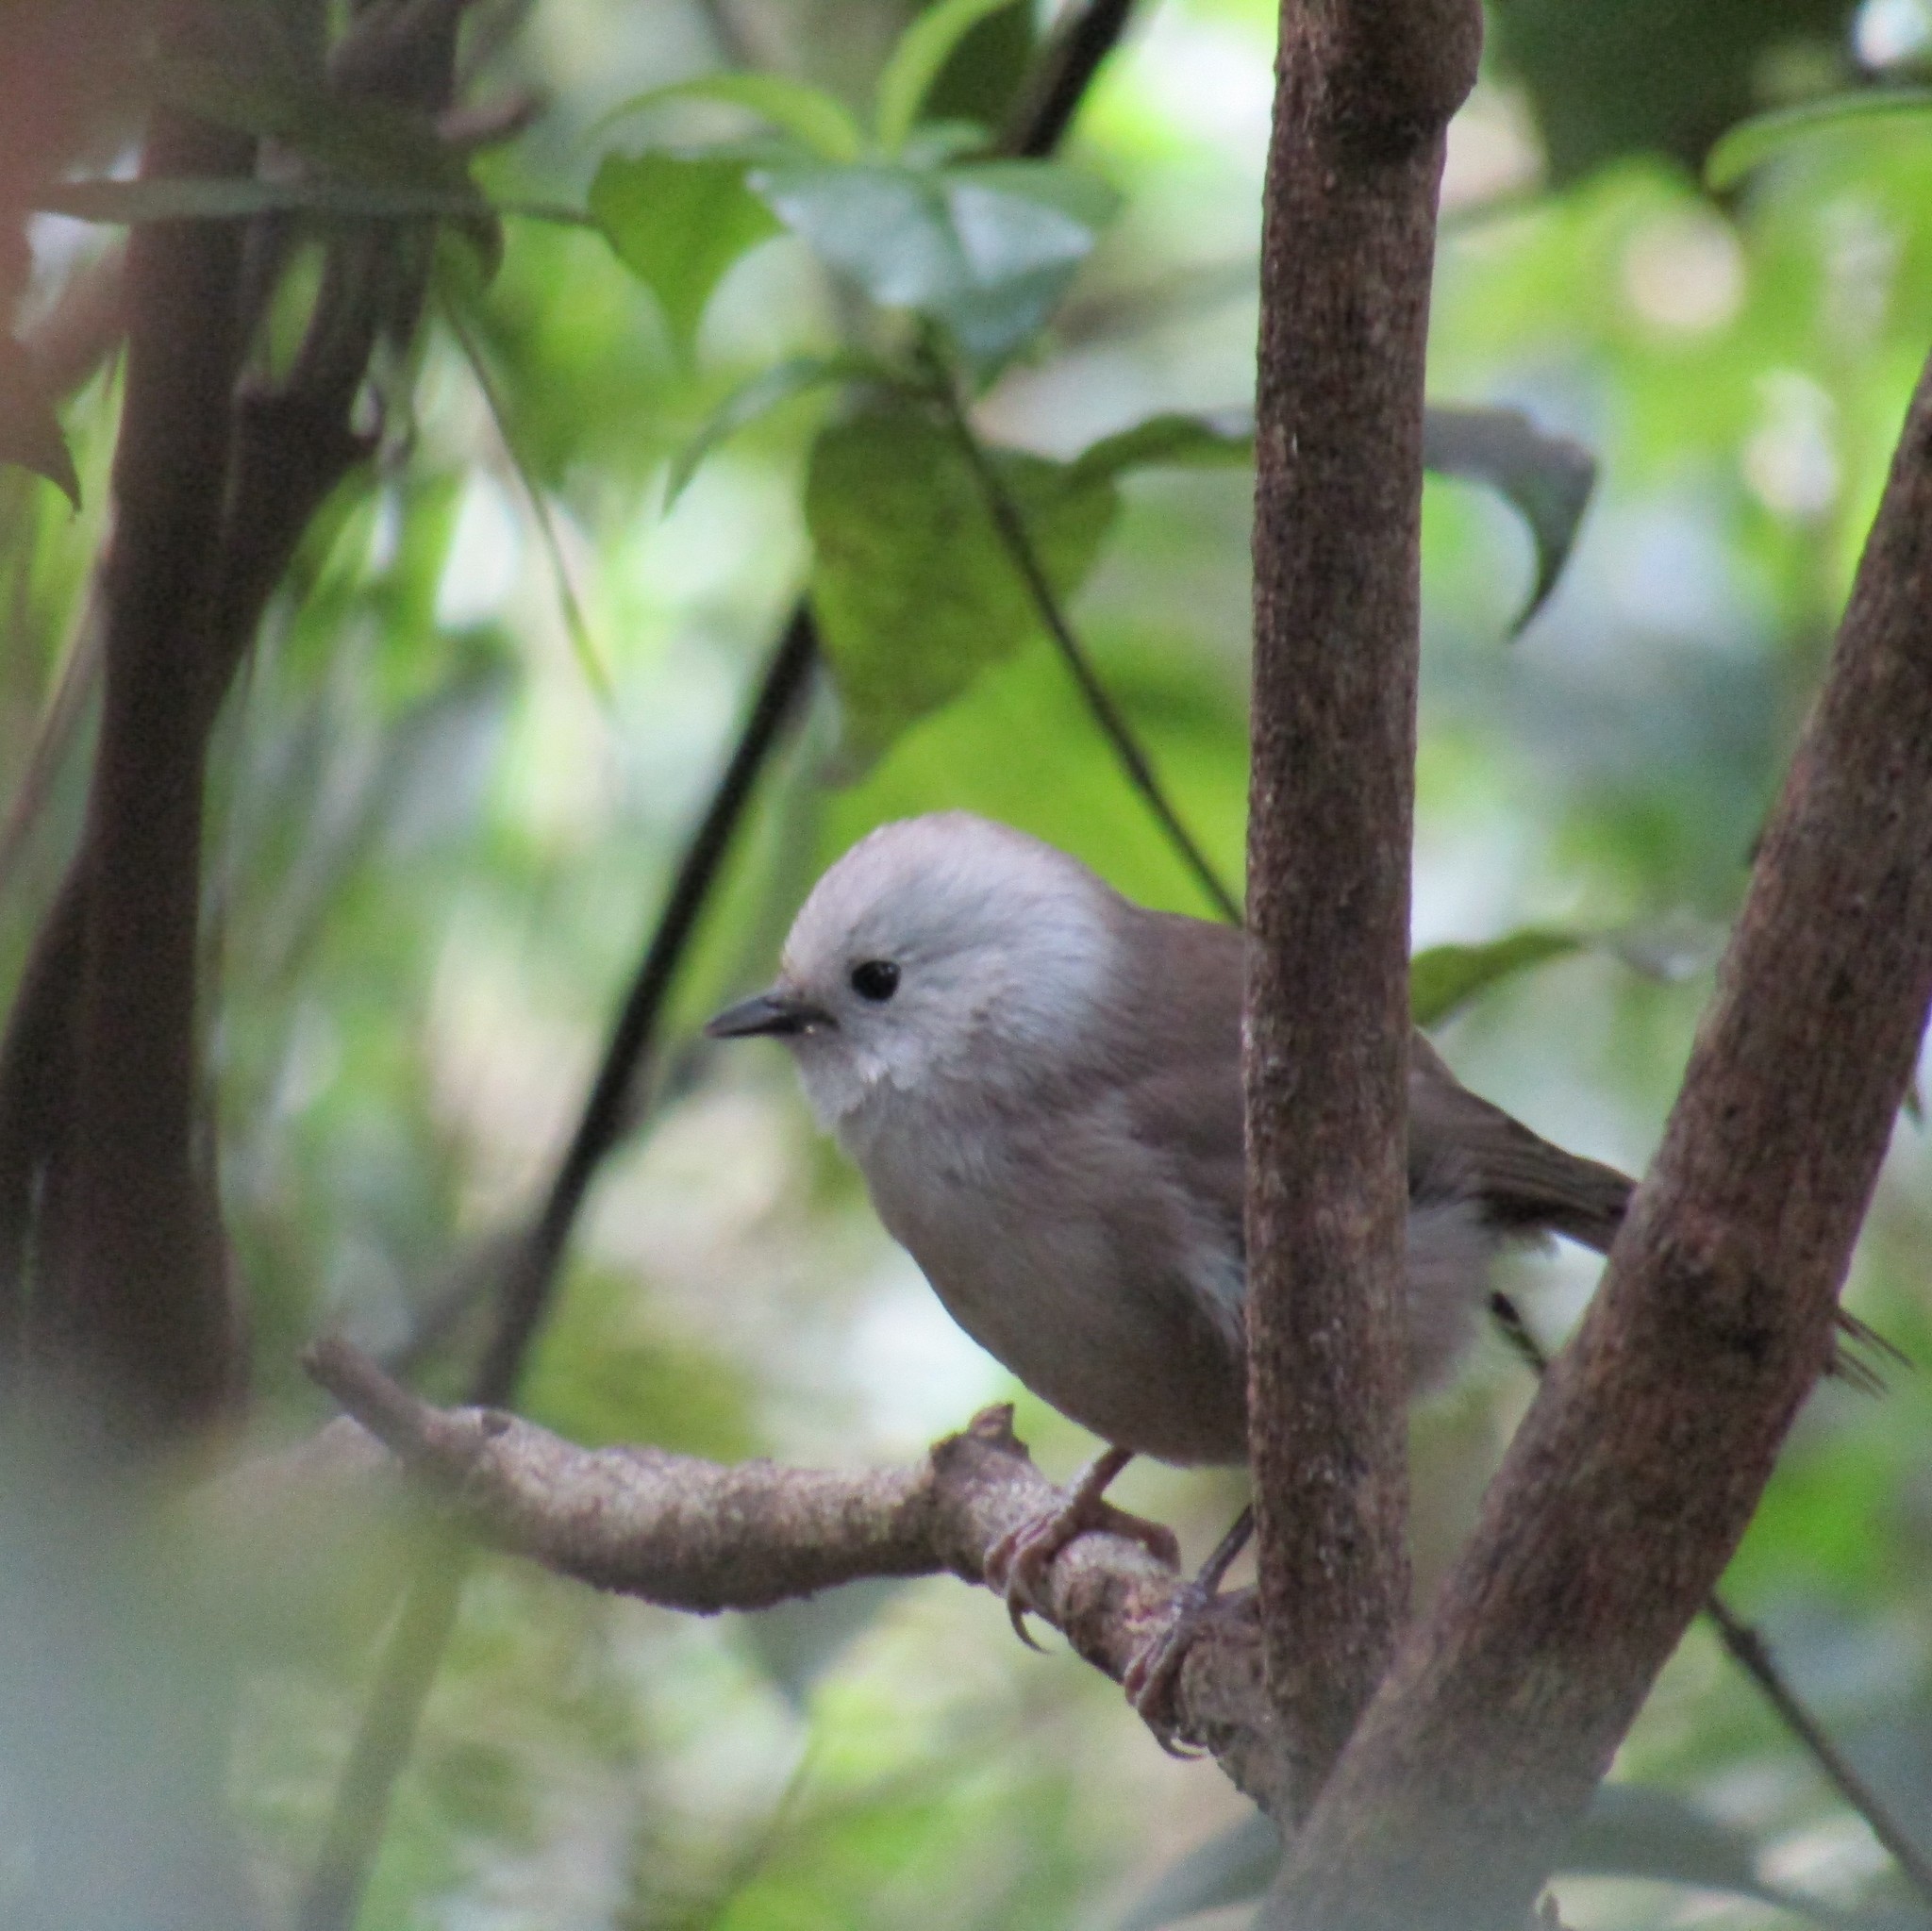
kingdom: Animalia
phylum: Chordata
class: Aves
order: Passeriformes
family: Acanthizidae
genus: Mohoua
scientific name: Mohoua albicilla
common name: Whitehead
